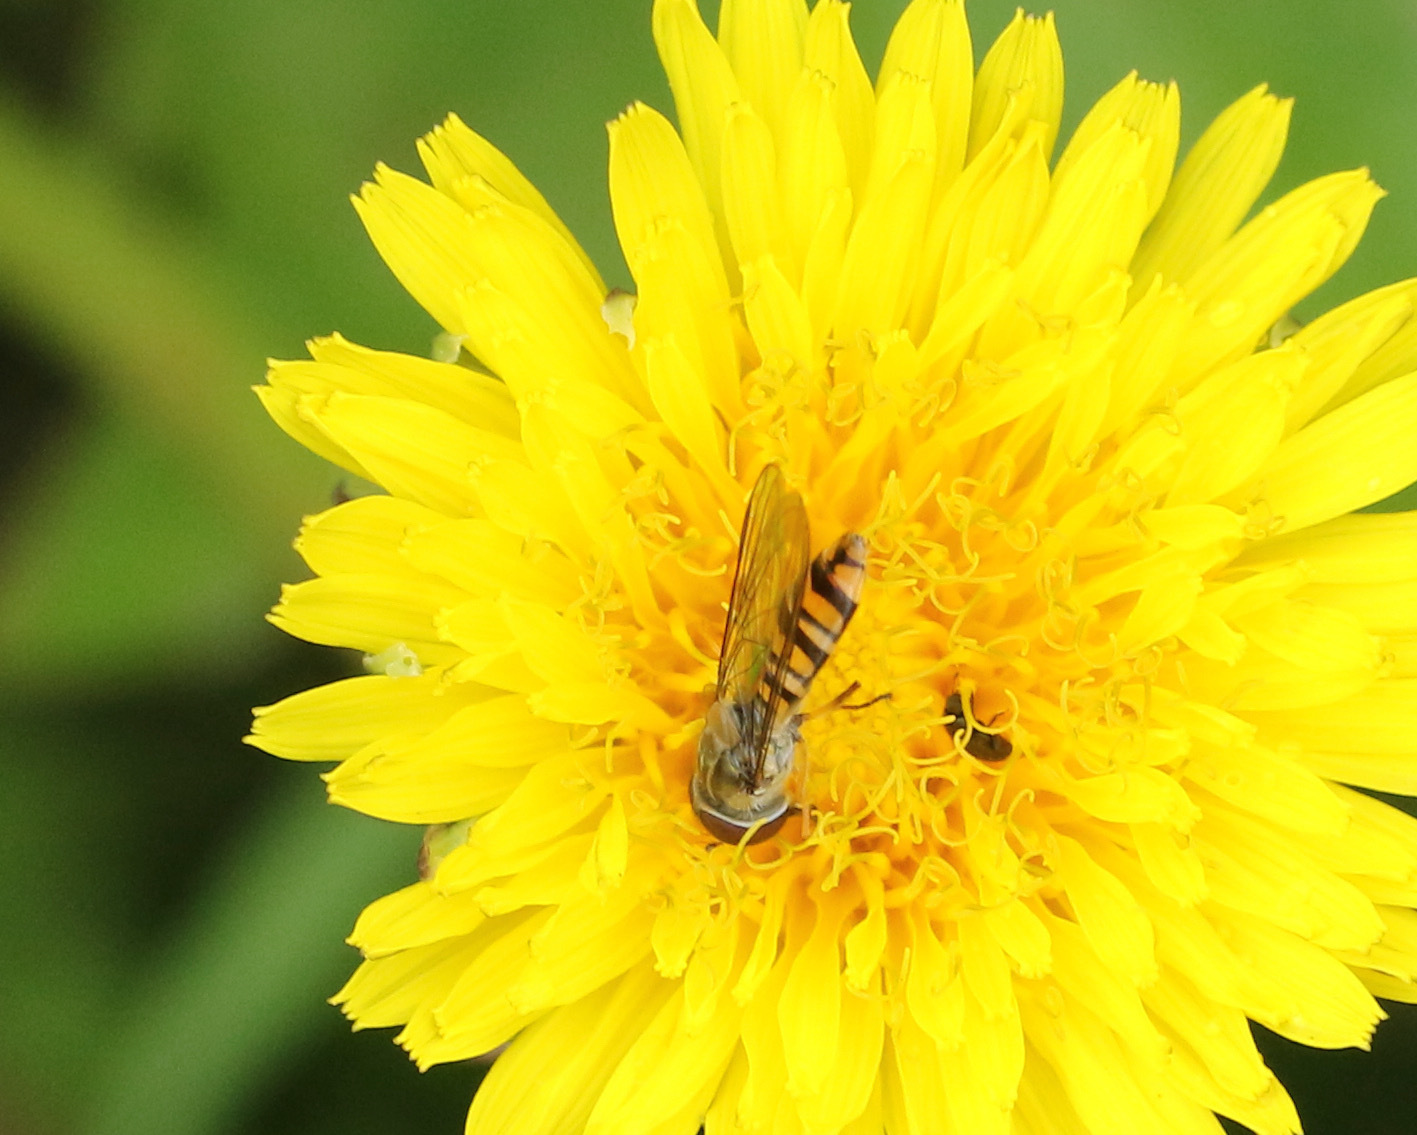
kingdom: Animalia
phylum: Arthropoda
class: Insecta
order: Diptera
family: Syrphidae
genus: Episyrphus
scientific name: Episyrphus balteatus
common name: Marmalade hoverfly
